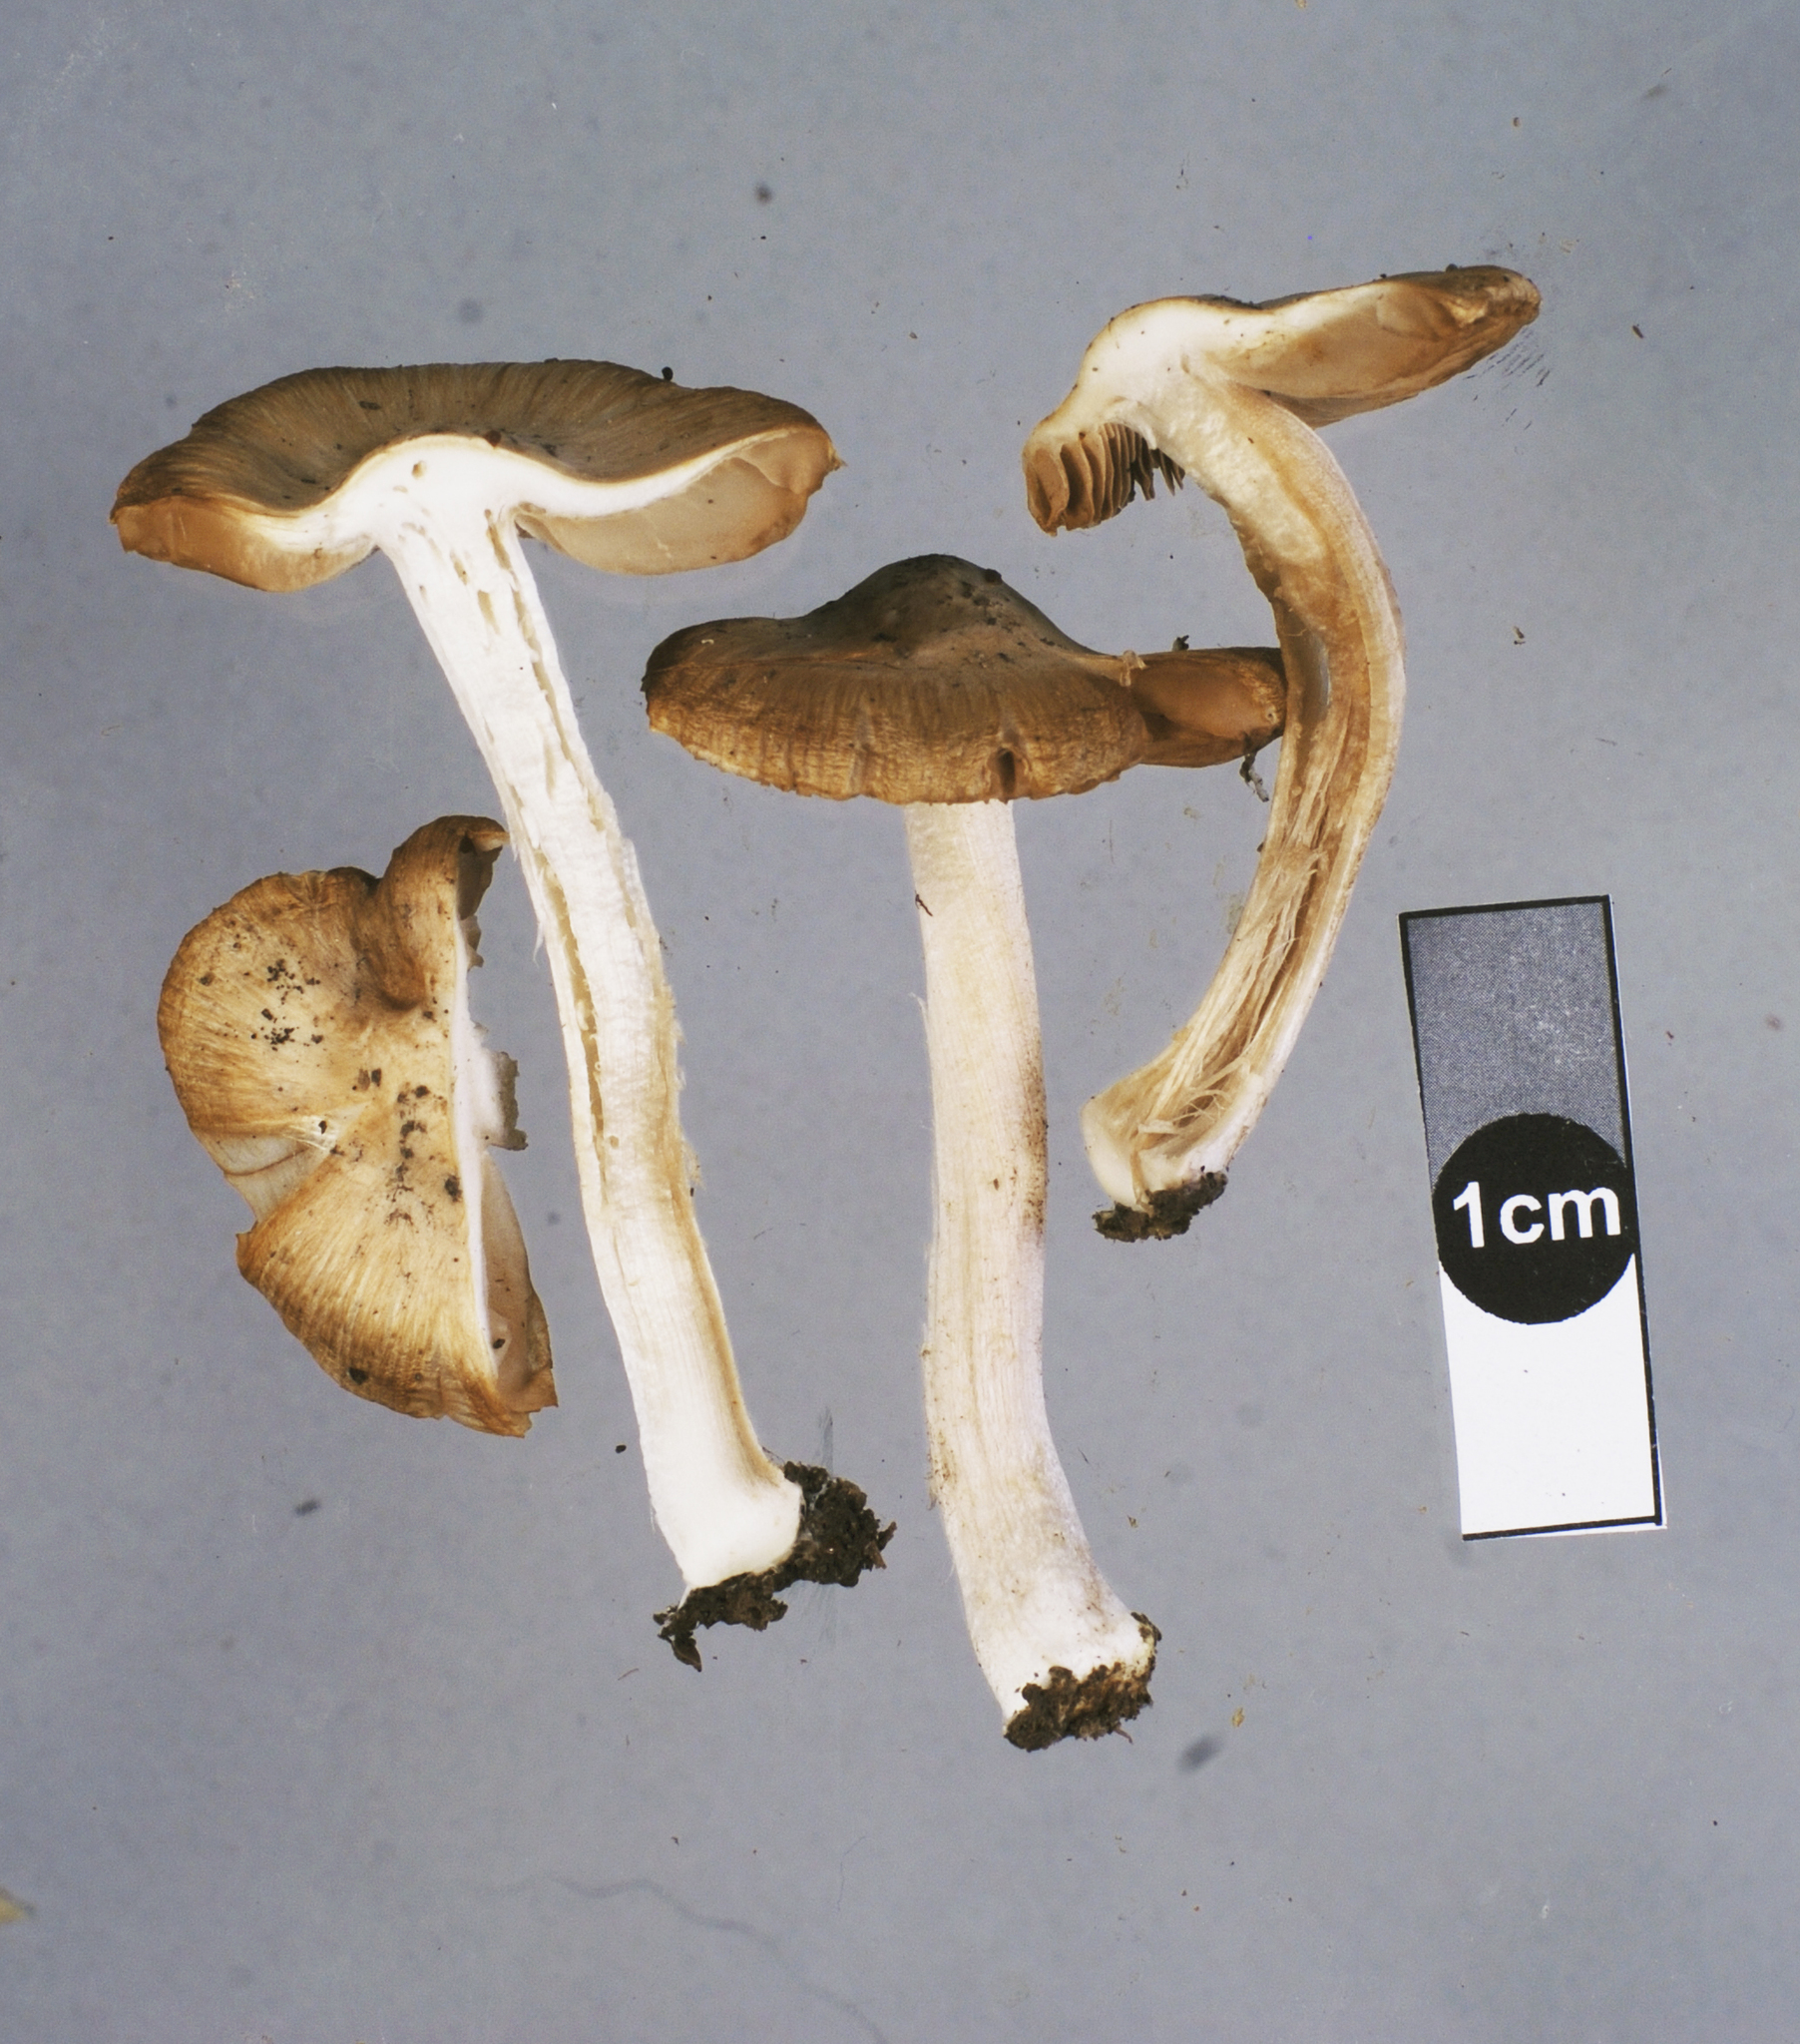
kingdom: Fungi
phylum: Basidiomycota
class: Agaricomycetes
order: Agaricales
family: Inocybaceae
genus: Inocybe
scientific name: Inocybe brunneidisca
